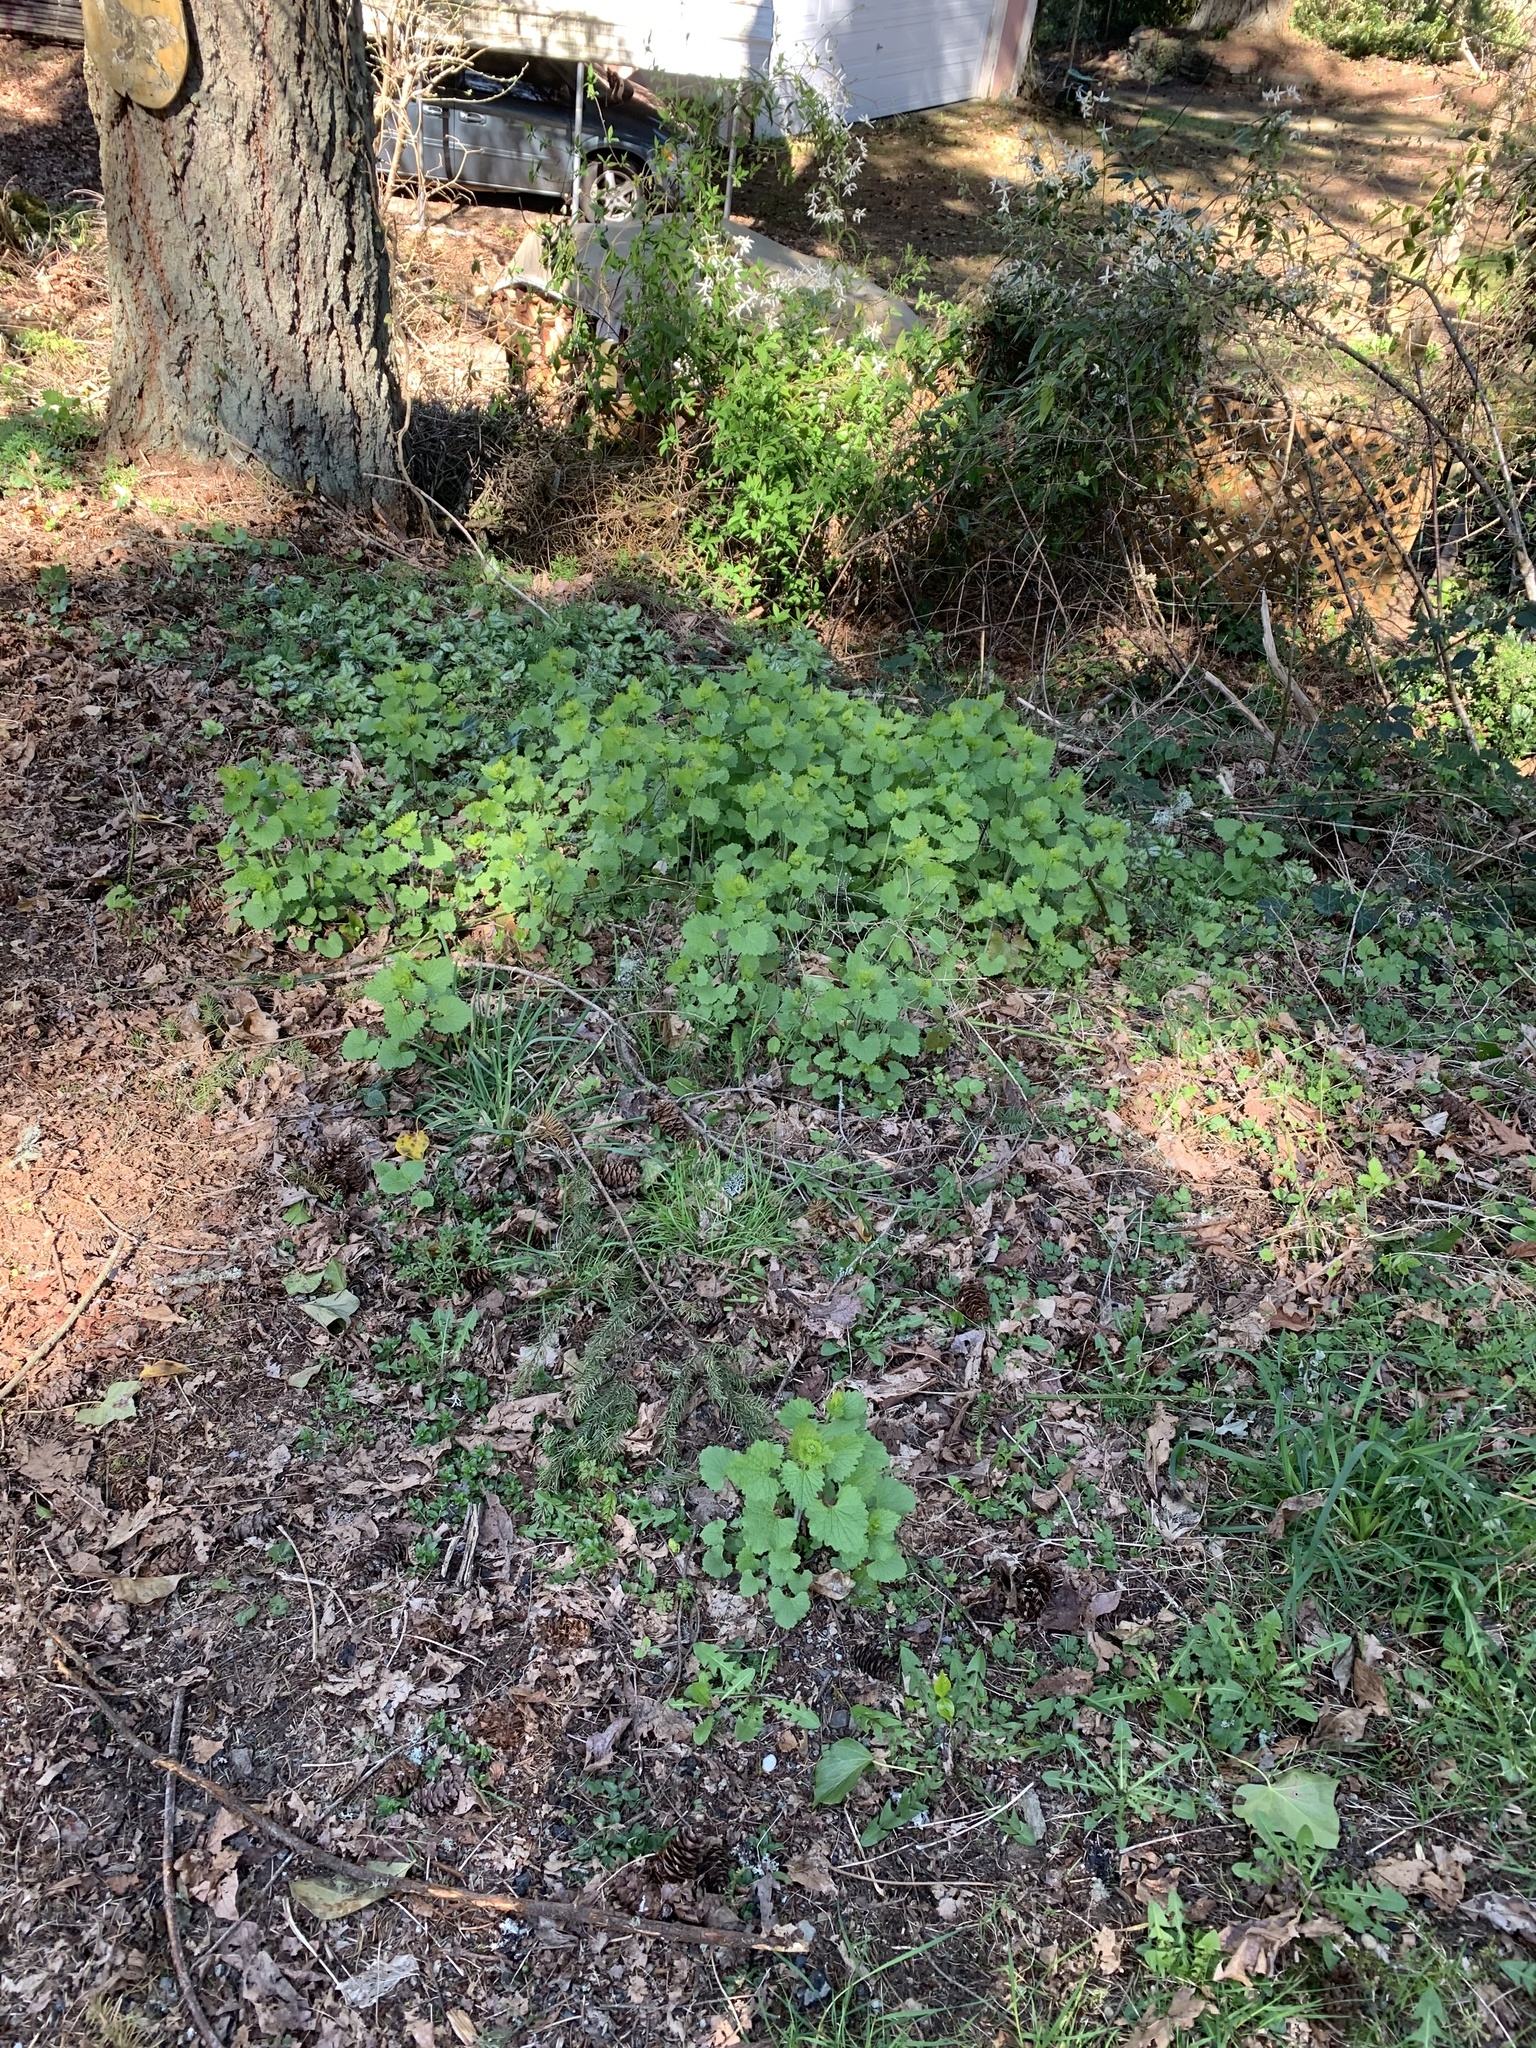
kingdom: Plantae
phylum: Tracheophyta
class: Magnoliopsida
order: Brassicales
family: Brassicaceae
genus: Alliaria
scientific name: Alliaria petiolata
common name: Garlic mustard
